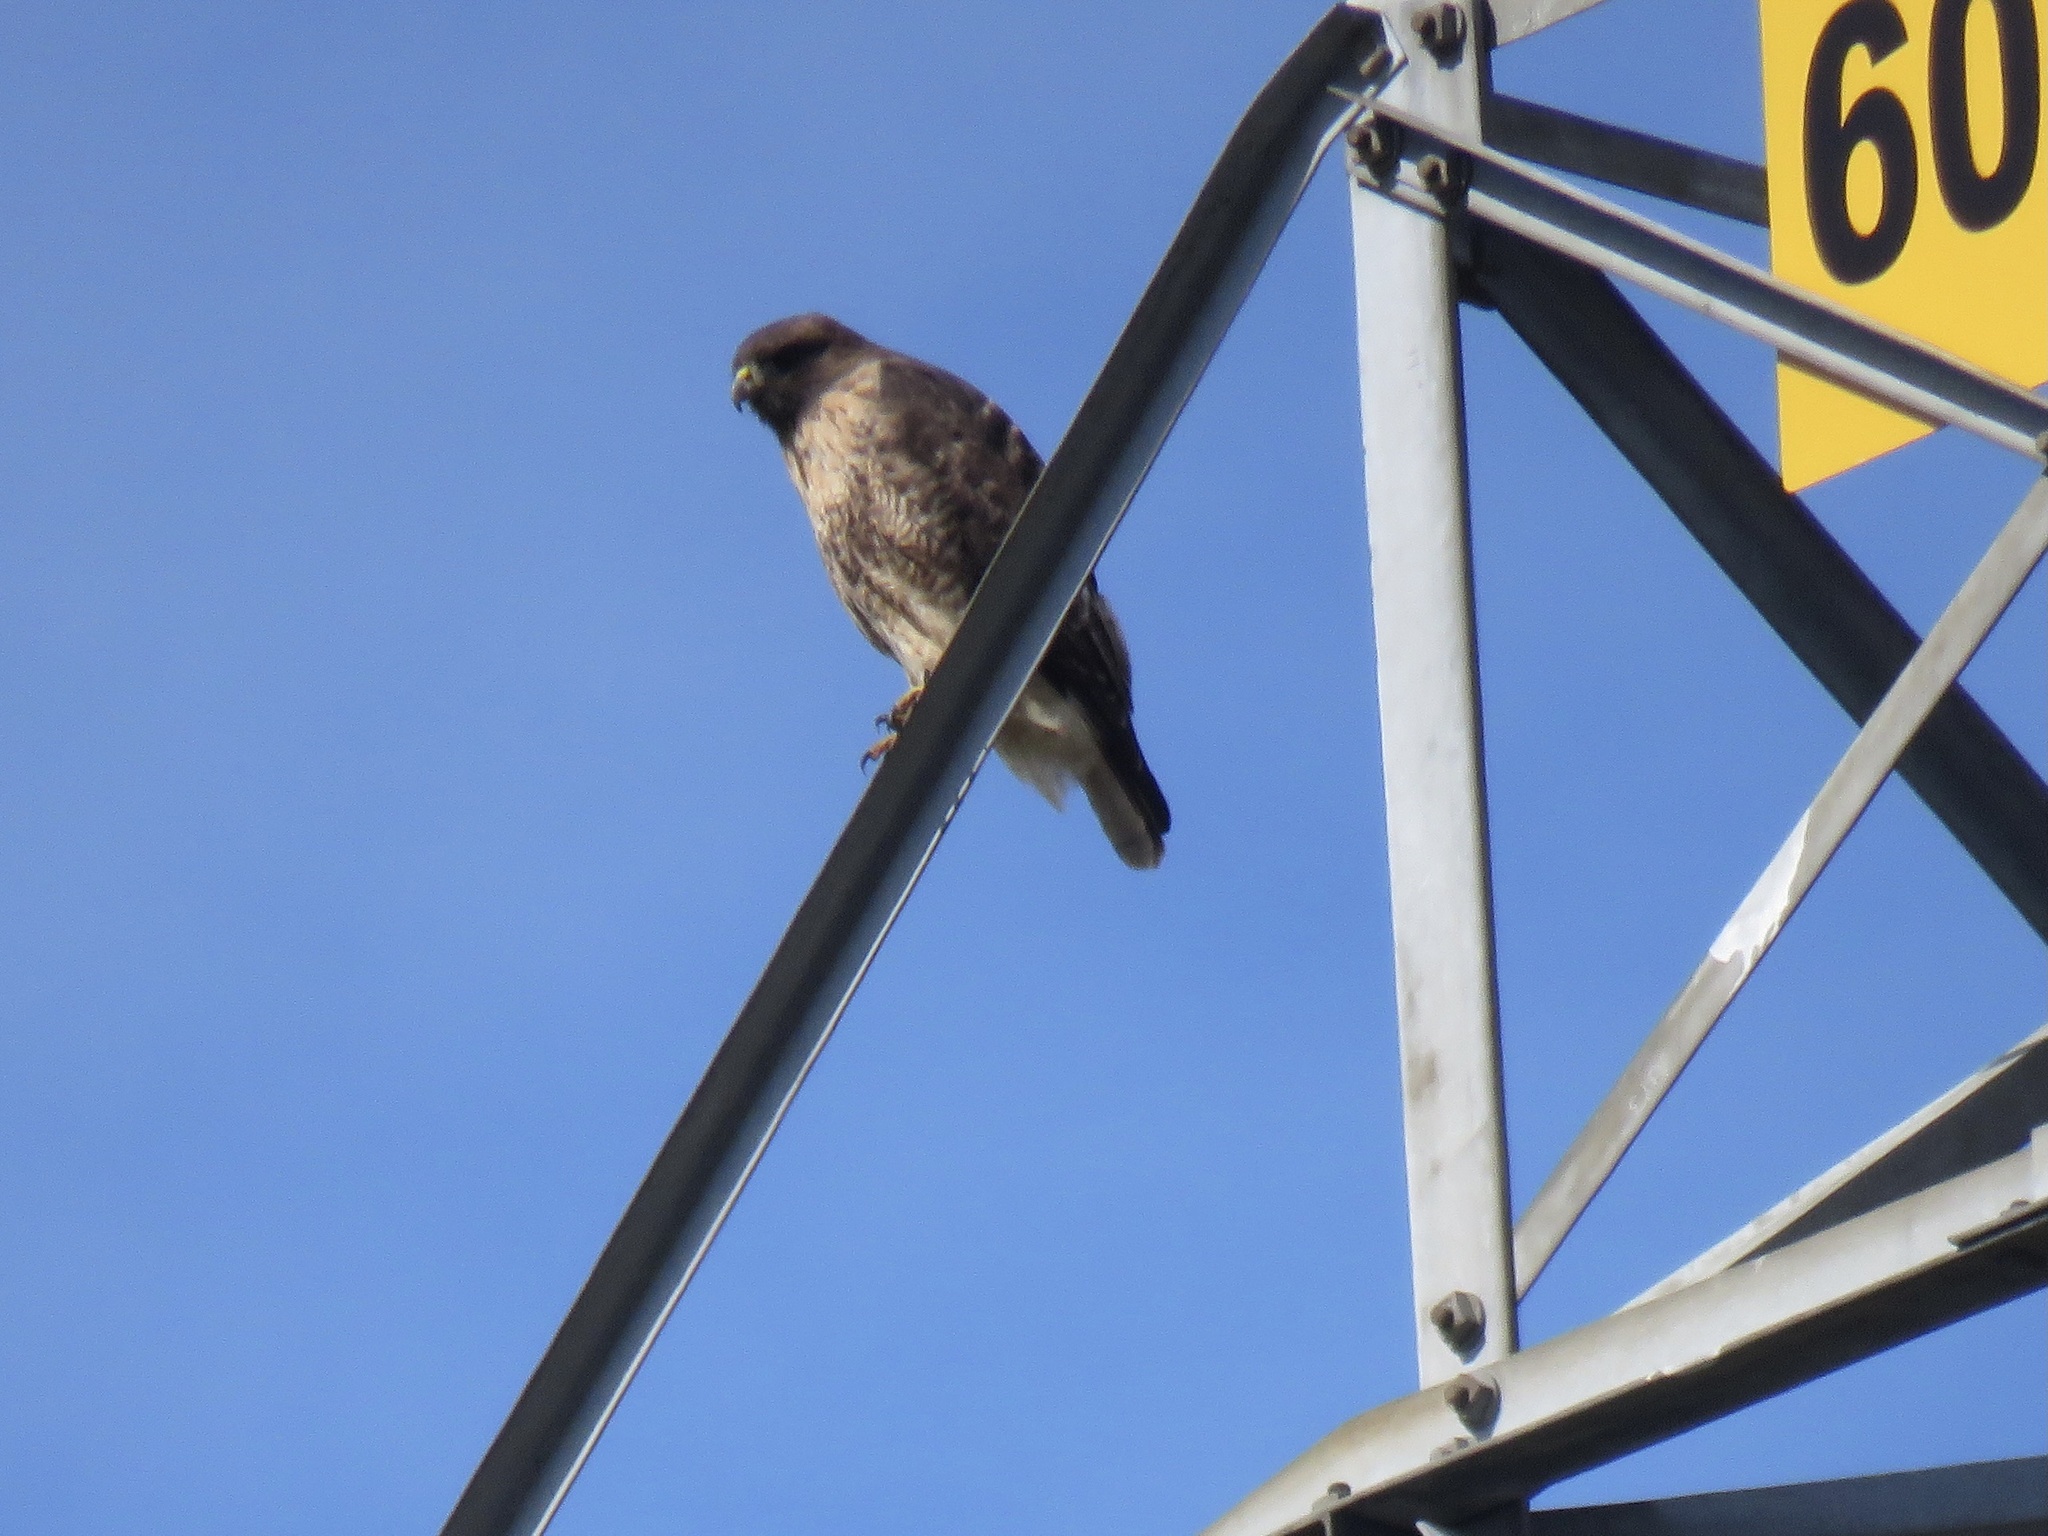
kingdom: Animalia
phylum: Chordata
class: Aves
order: Accipitriformes
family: Accipitridae
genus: Buteo
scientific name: Buteo jamaicensis
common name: Red-tailed hawk
